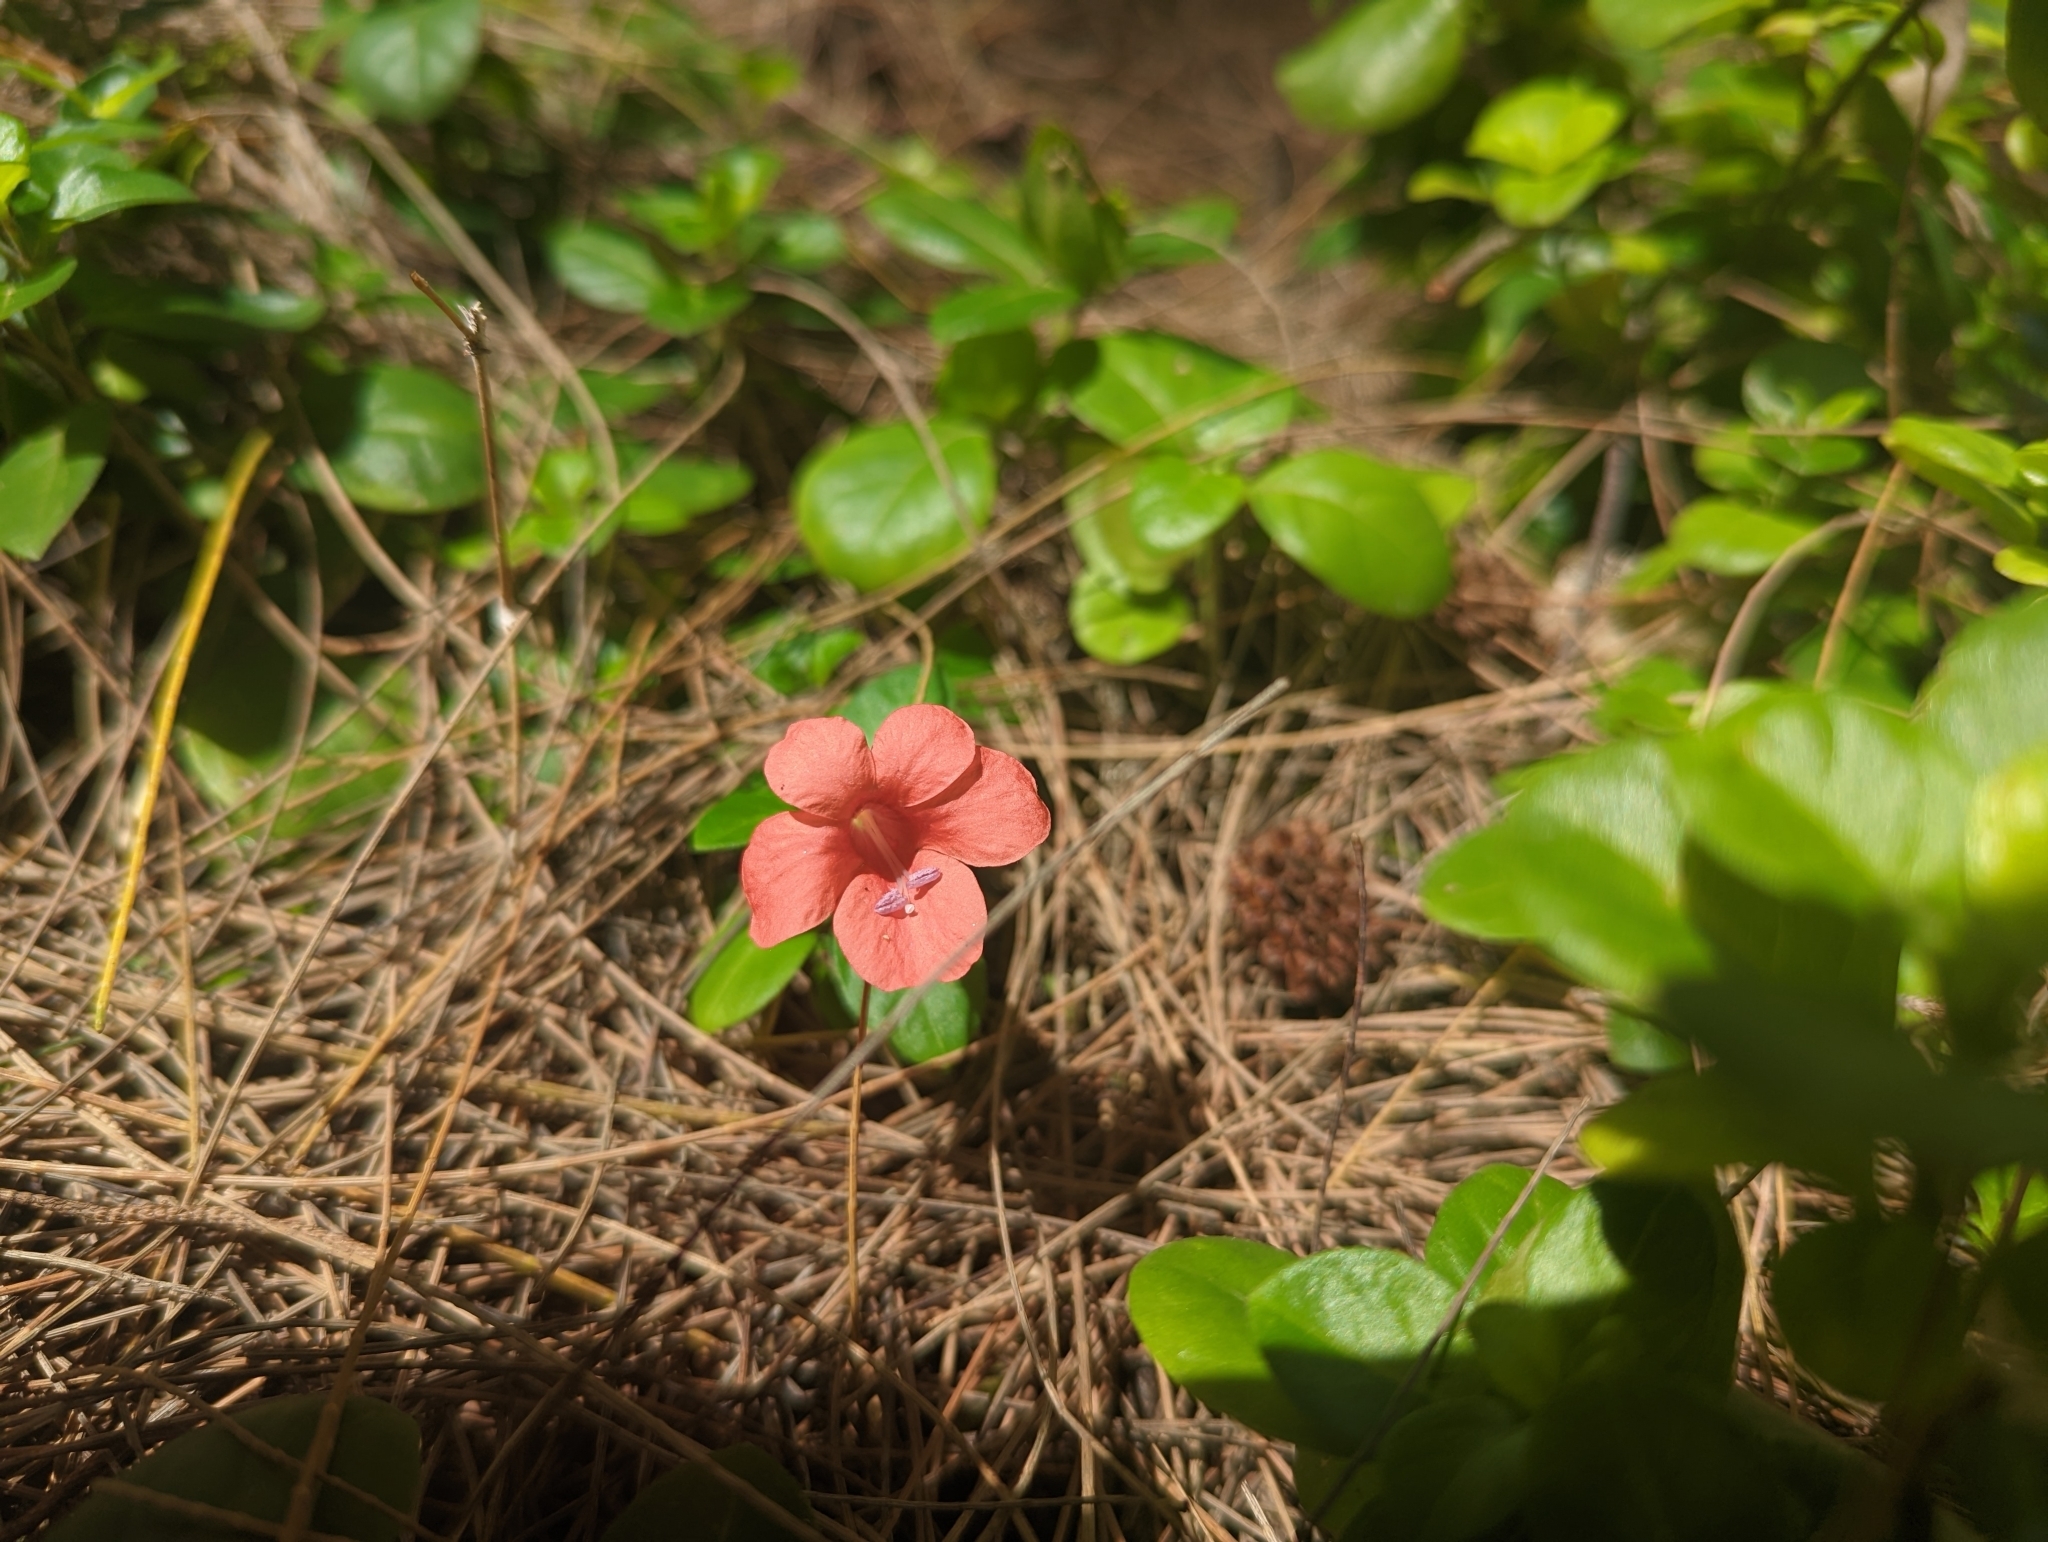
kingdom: Plantae
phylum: Tracheophyta
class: Magnoliopsida
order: Lamiales
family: Acanthaceae
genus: Barleria
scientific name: Barleria repens
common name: Pink-ruellia
